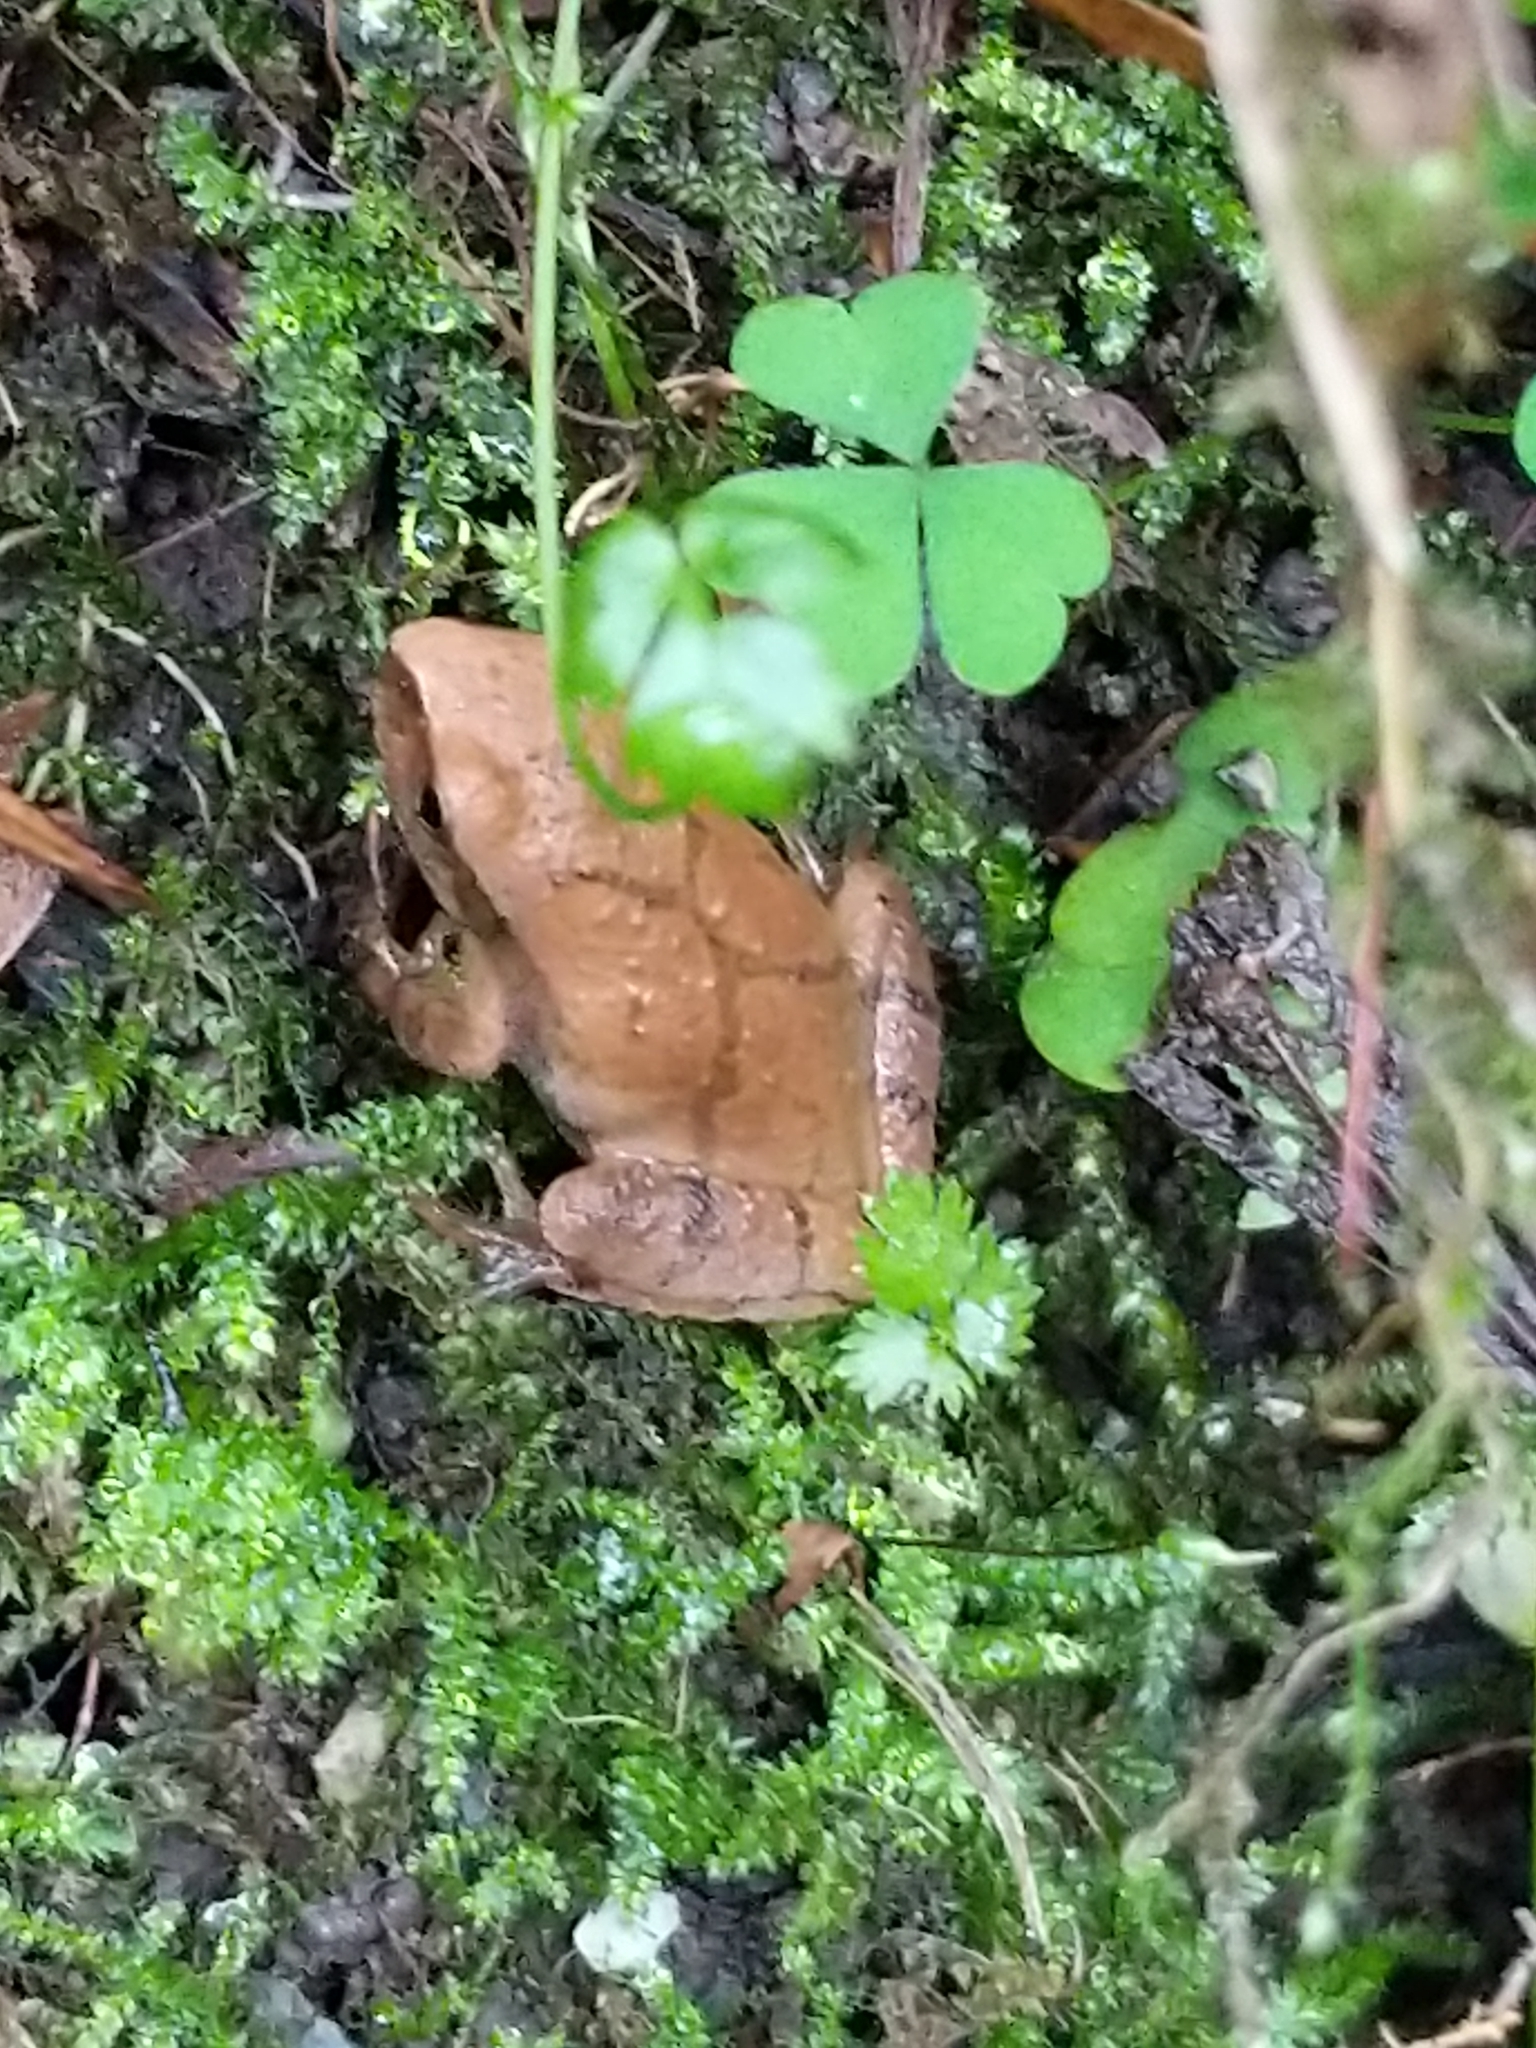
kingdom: Animalia
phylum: Chordata
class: Amphibia
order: Anura
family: Hylidae
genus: Pseudacris
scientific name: Pseudacris crucifer
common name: Spring peeper
